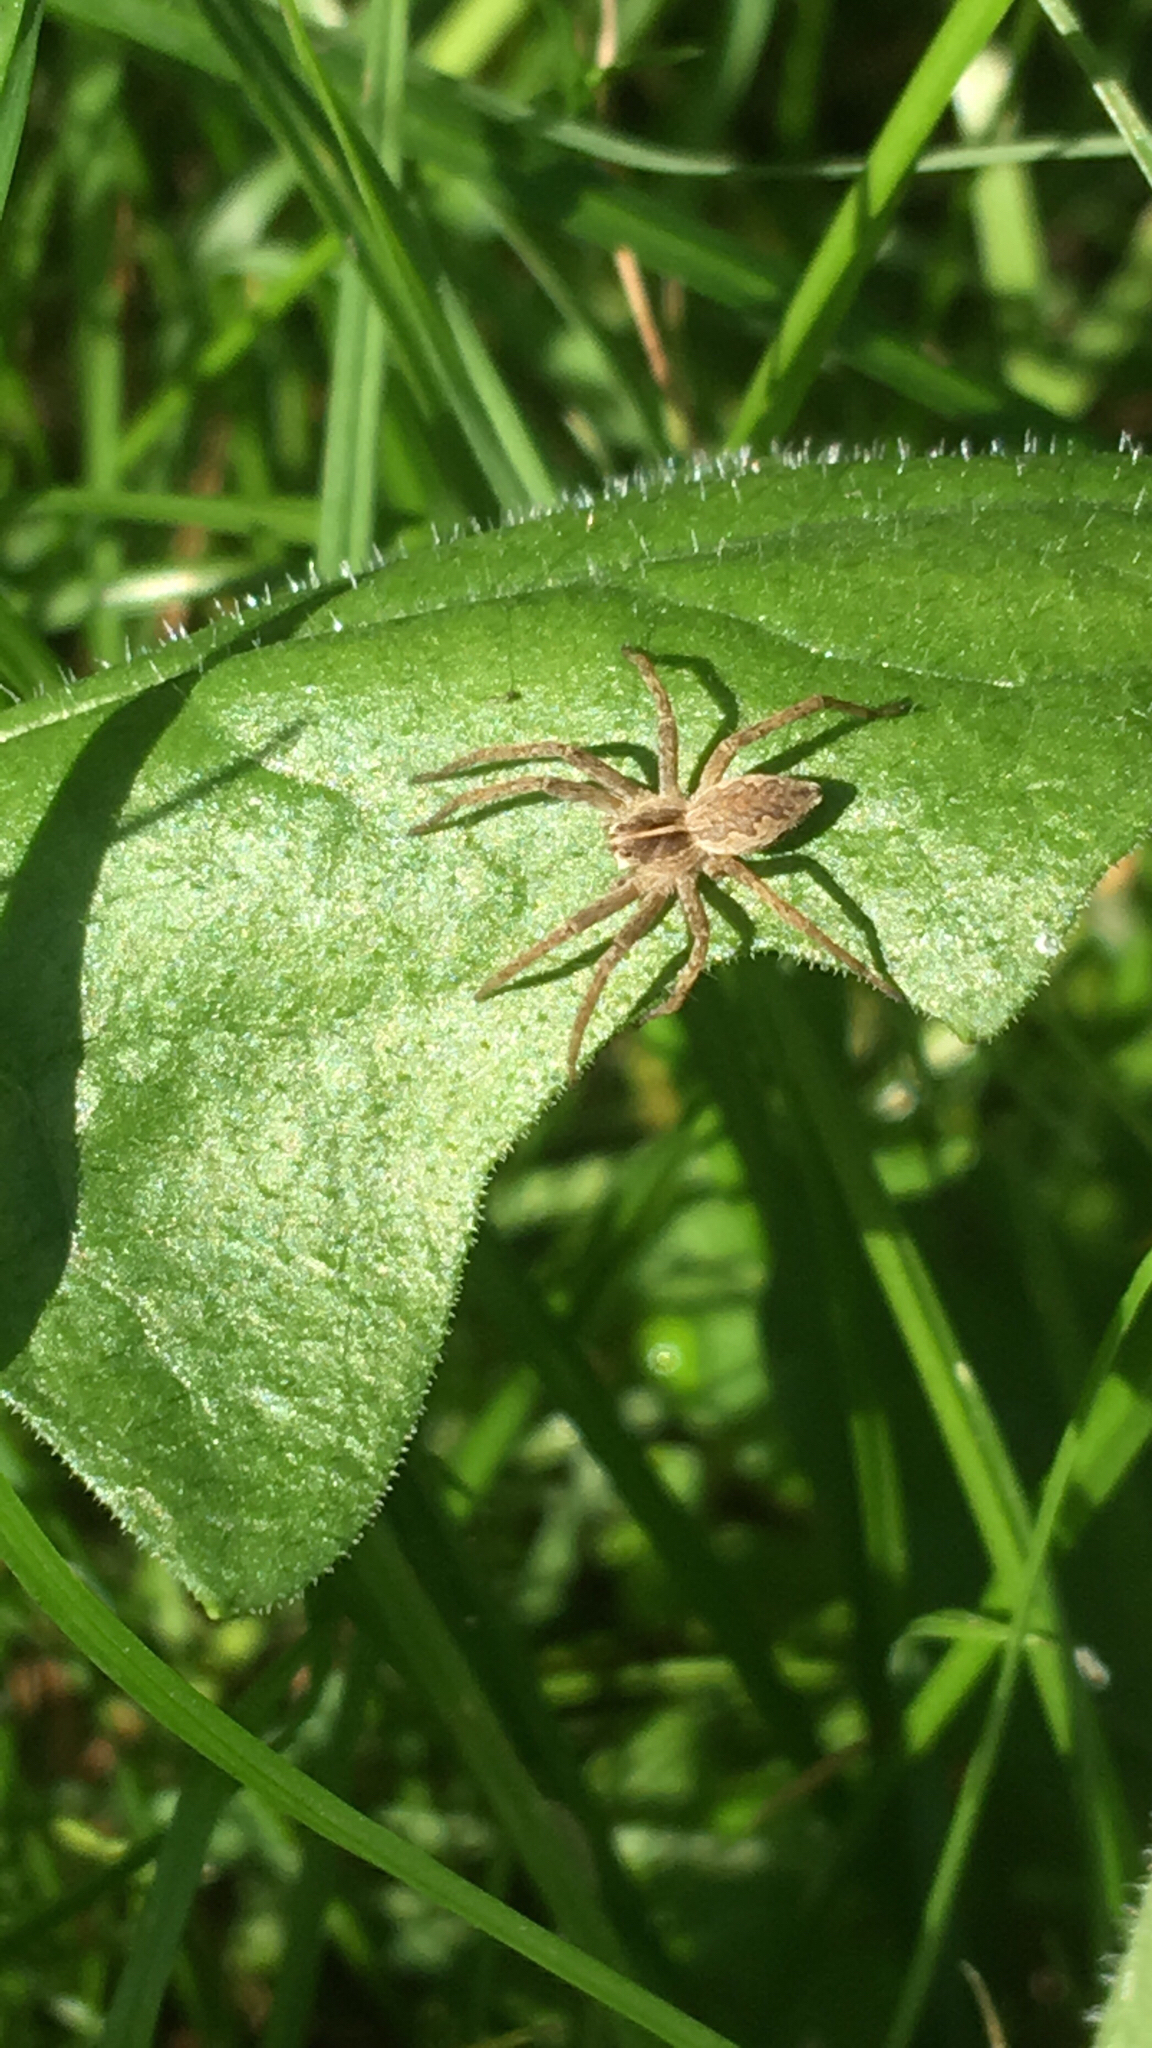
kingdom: Animalia
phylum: Arthropoda
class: Arachnida
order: Araneae
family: Pisauridae
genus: Pisaura
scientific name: Pisaura mirabilis
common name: Tent spider
